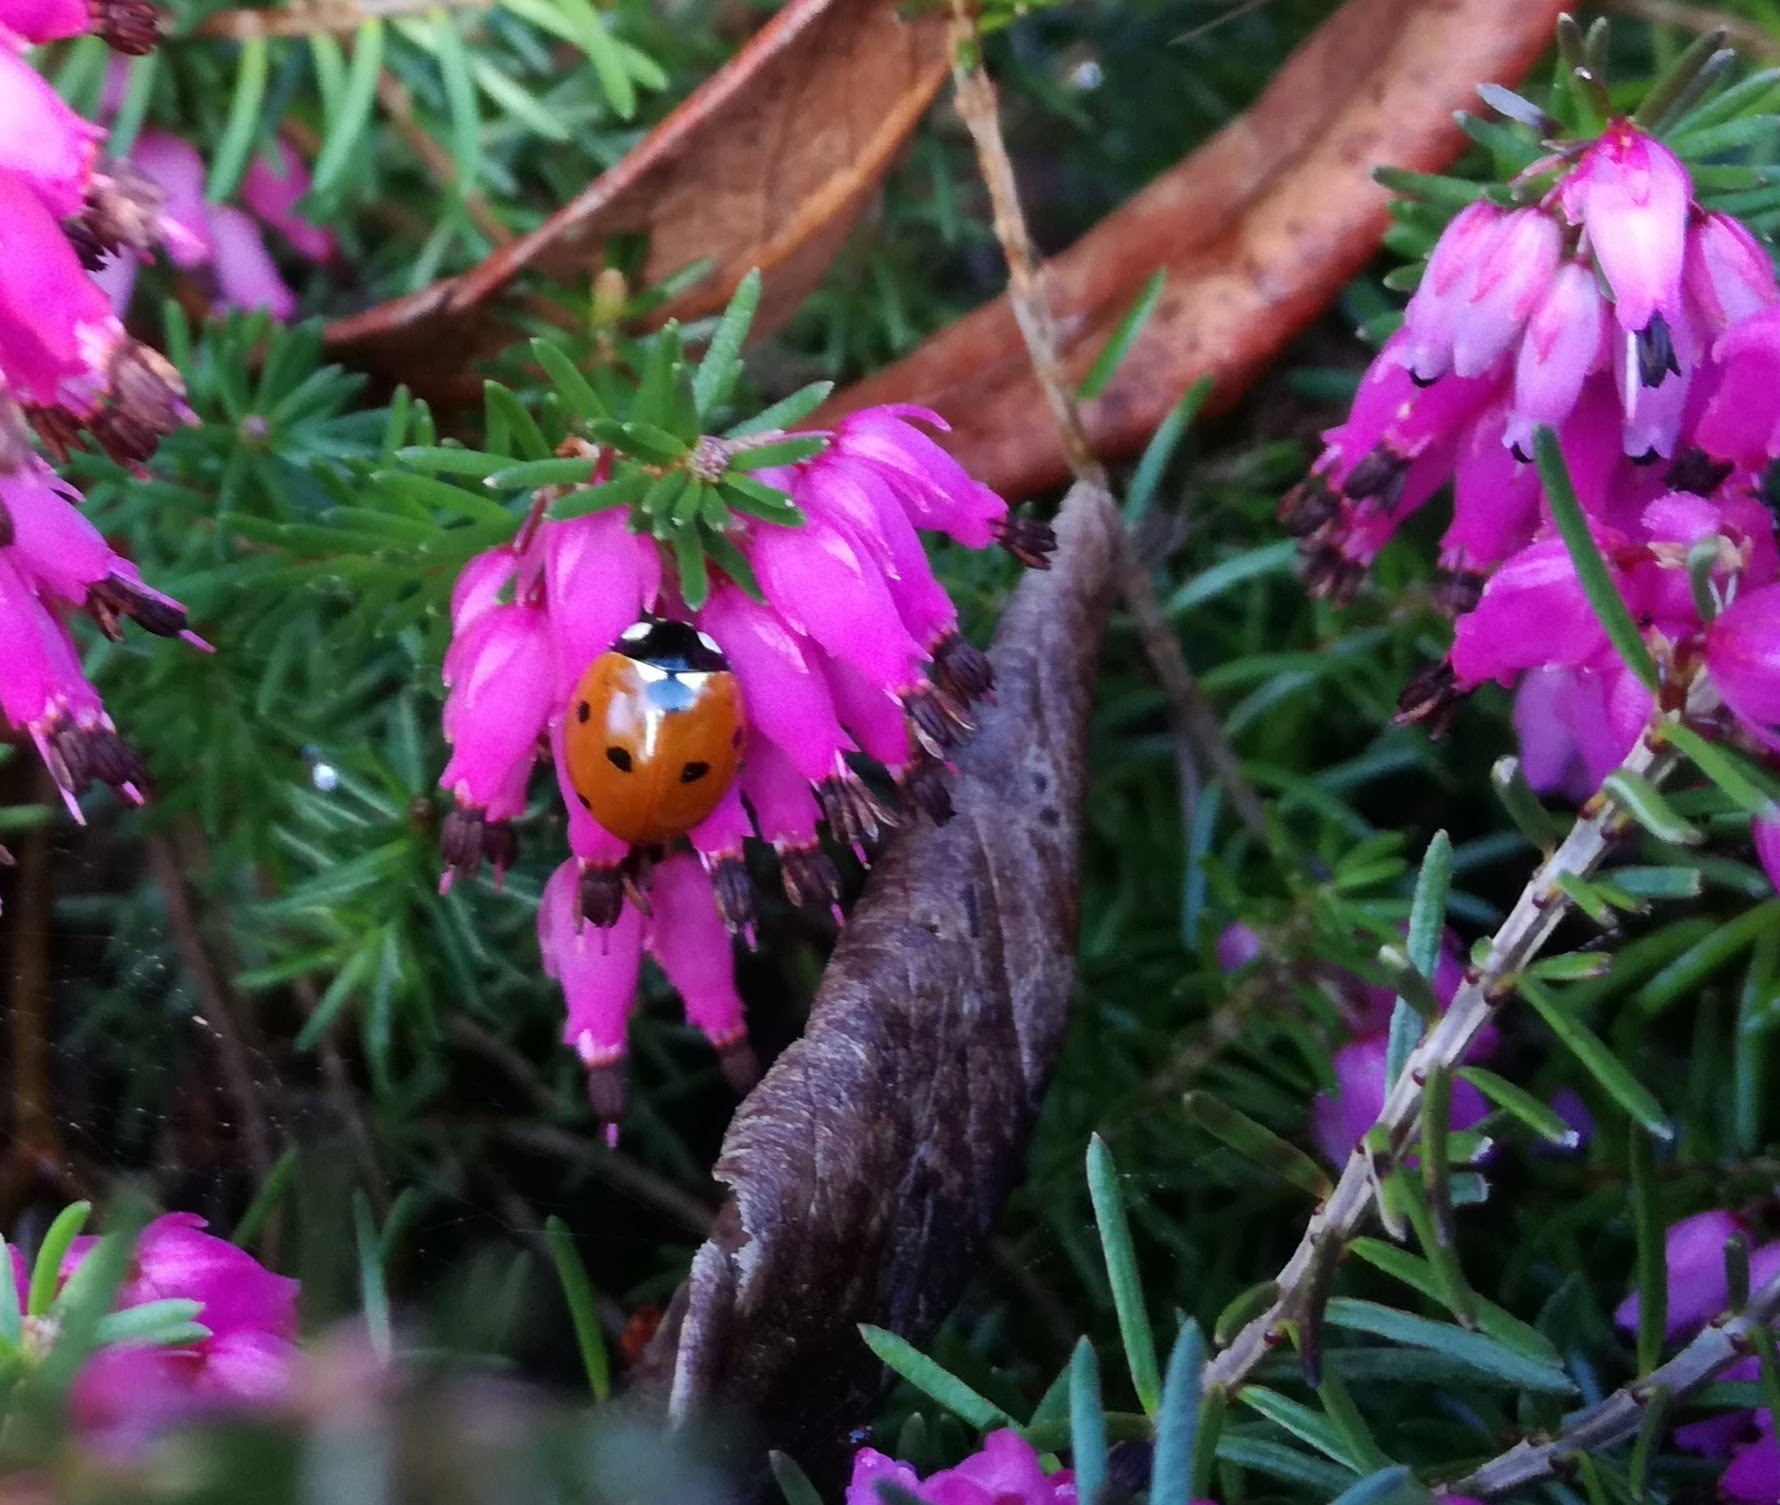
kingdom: Animalia
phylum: Arthropoda
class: Insecta
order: Coleoptera
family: Coccinellidae
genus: Coccinella
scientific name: Coccinella septempunctata
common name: Sevenspotted lady beetle
